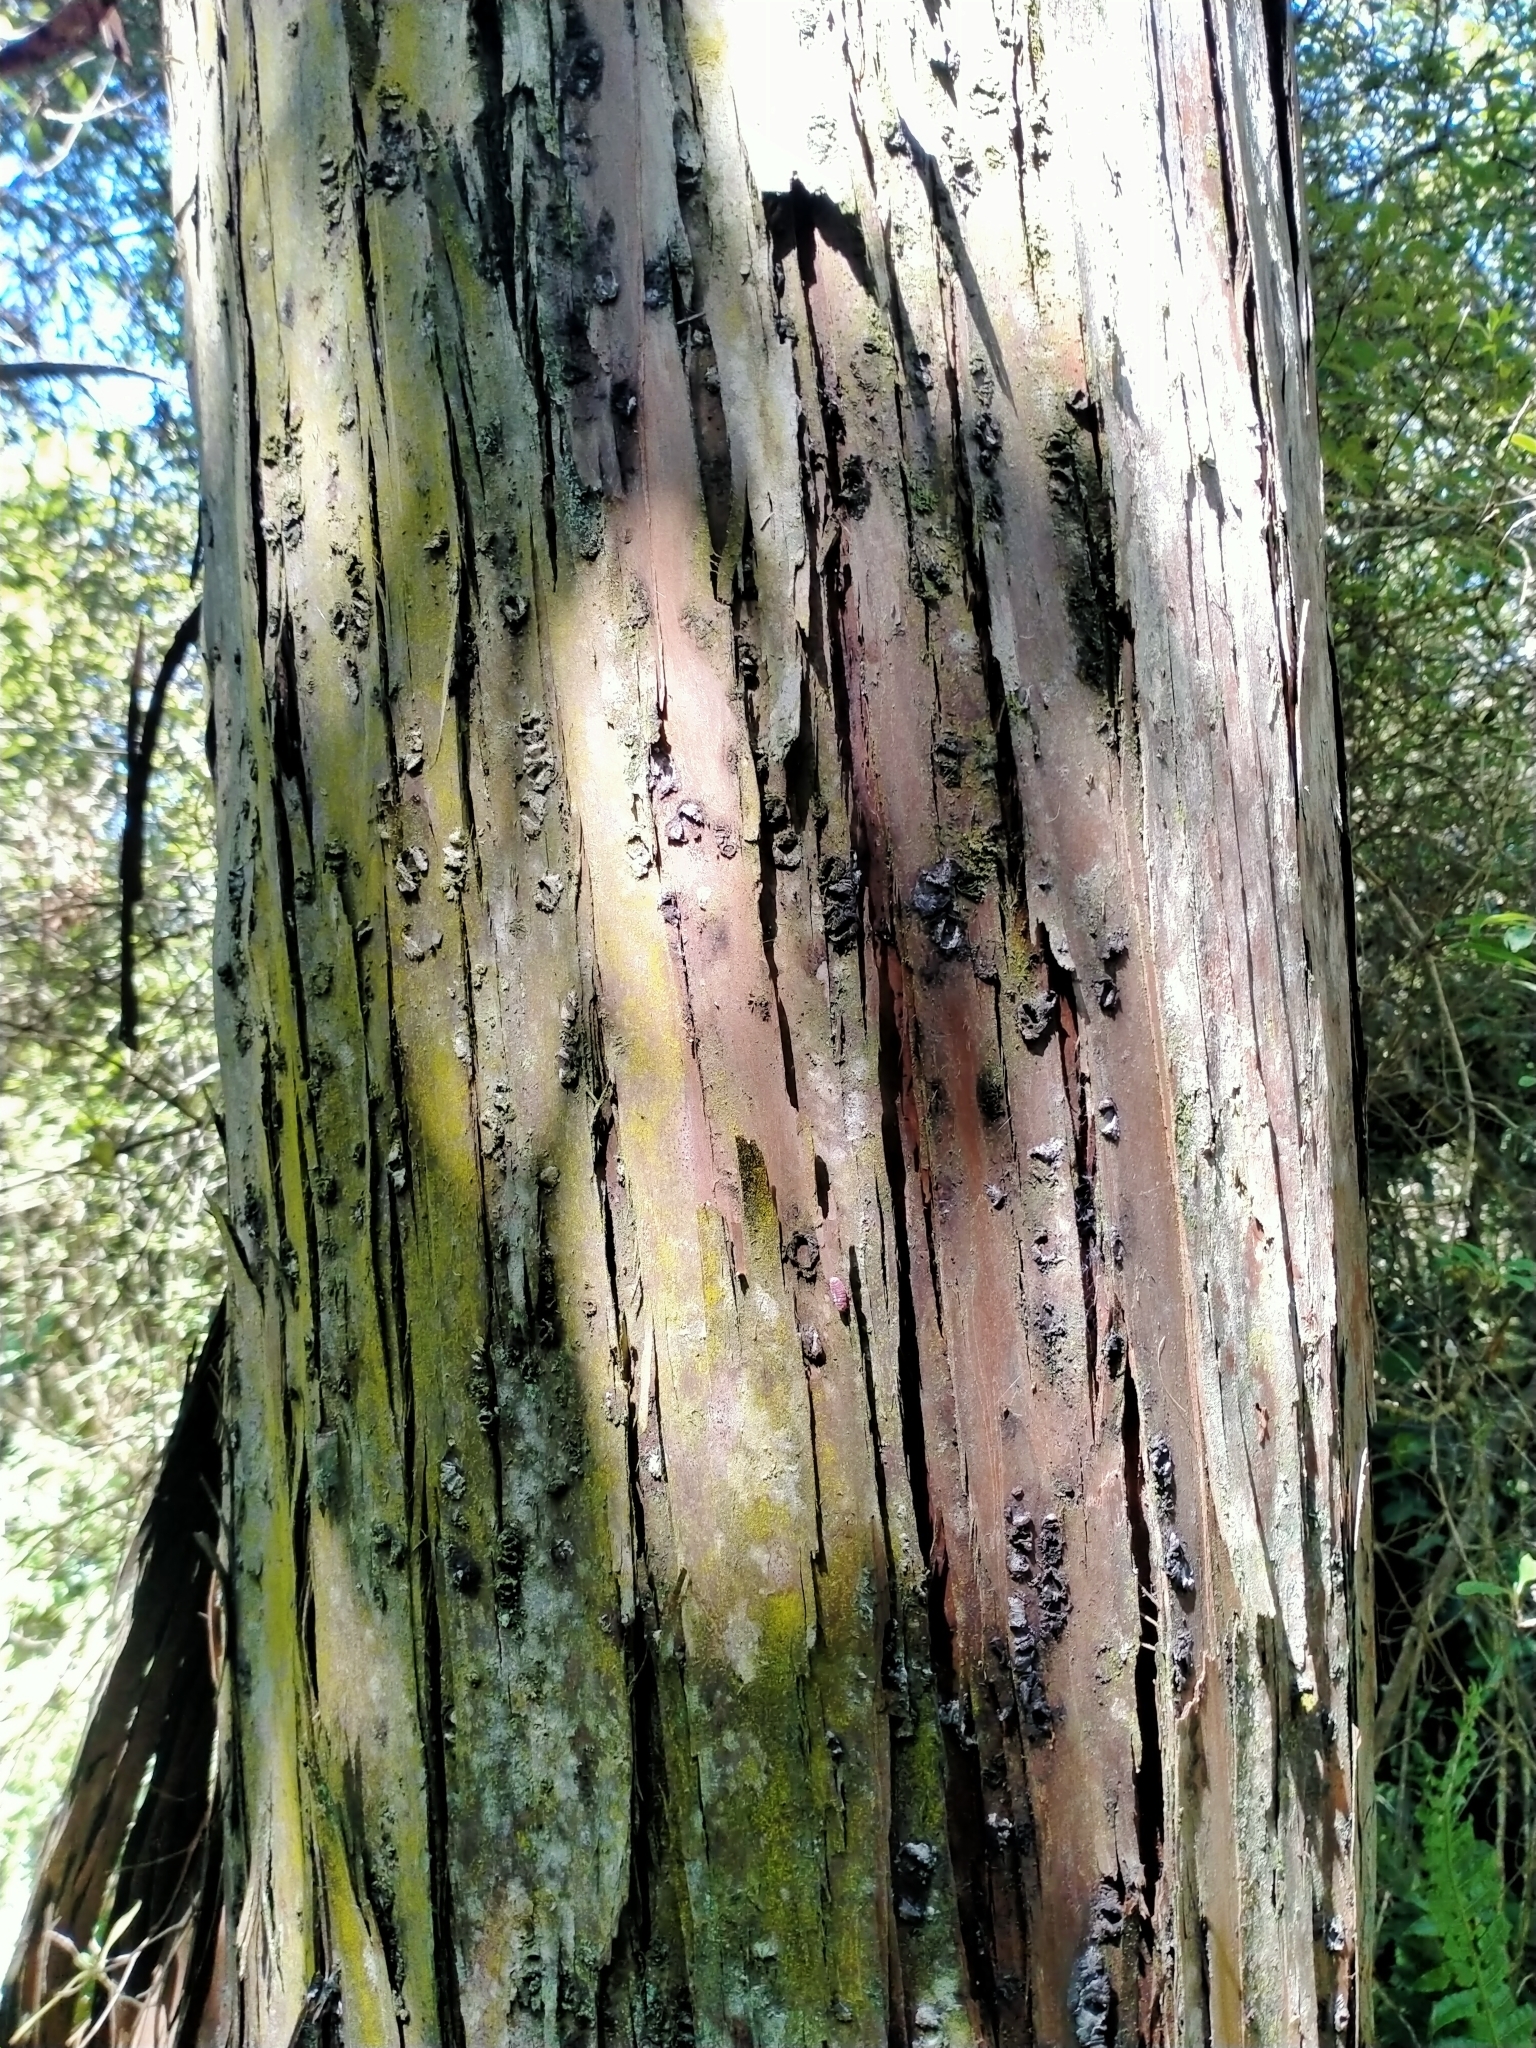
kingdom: Plantae
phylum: Tracheophyta
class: Pinopsida
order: Pinales
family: Cupressaceae
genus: Libocedrus
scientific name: Libocedrus bidwillii
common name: Cedar
